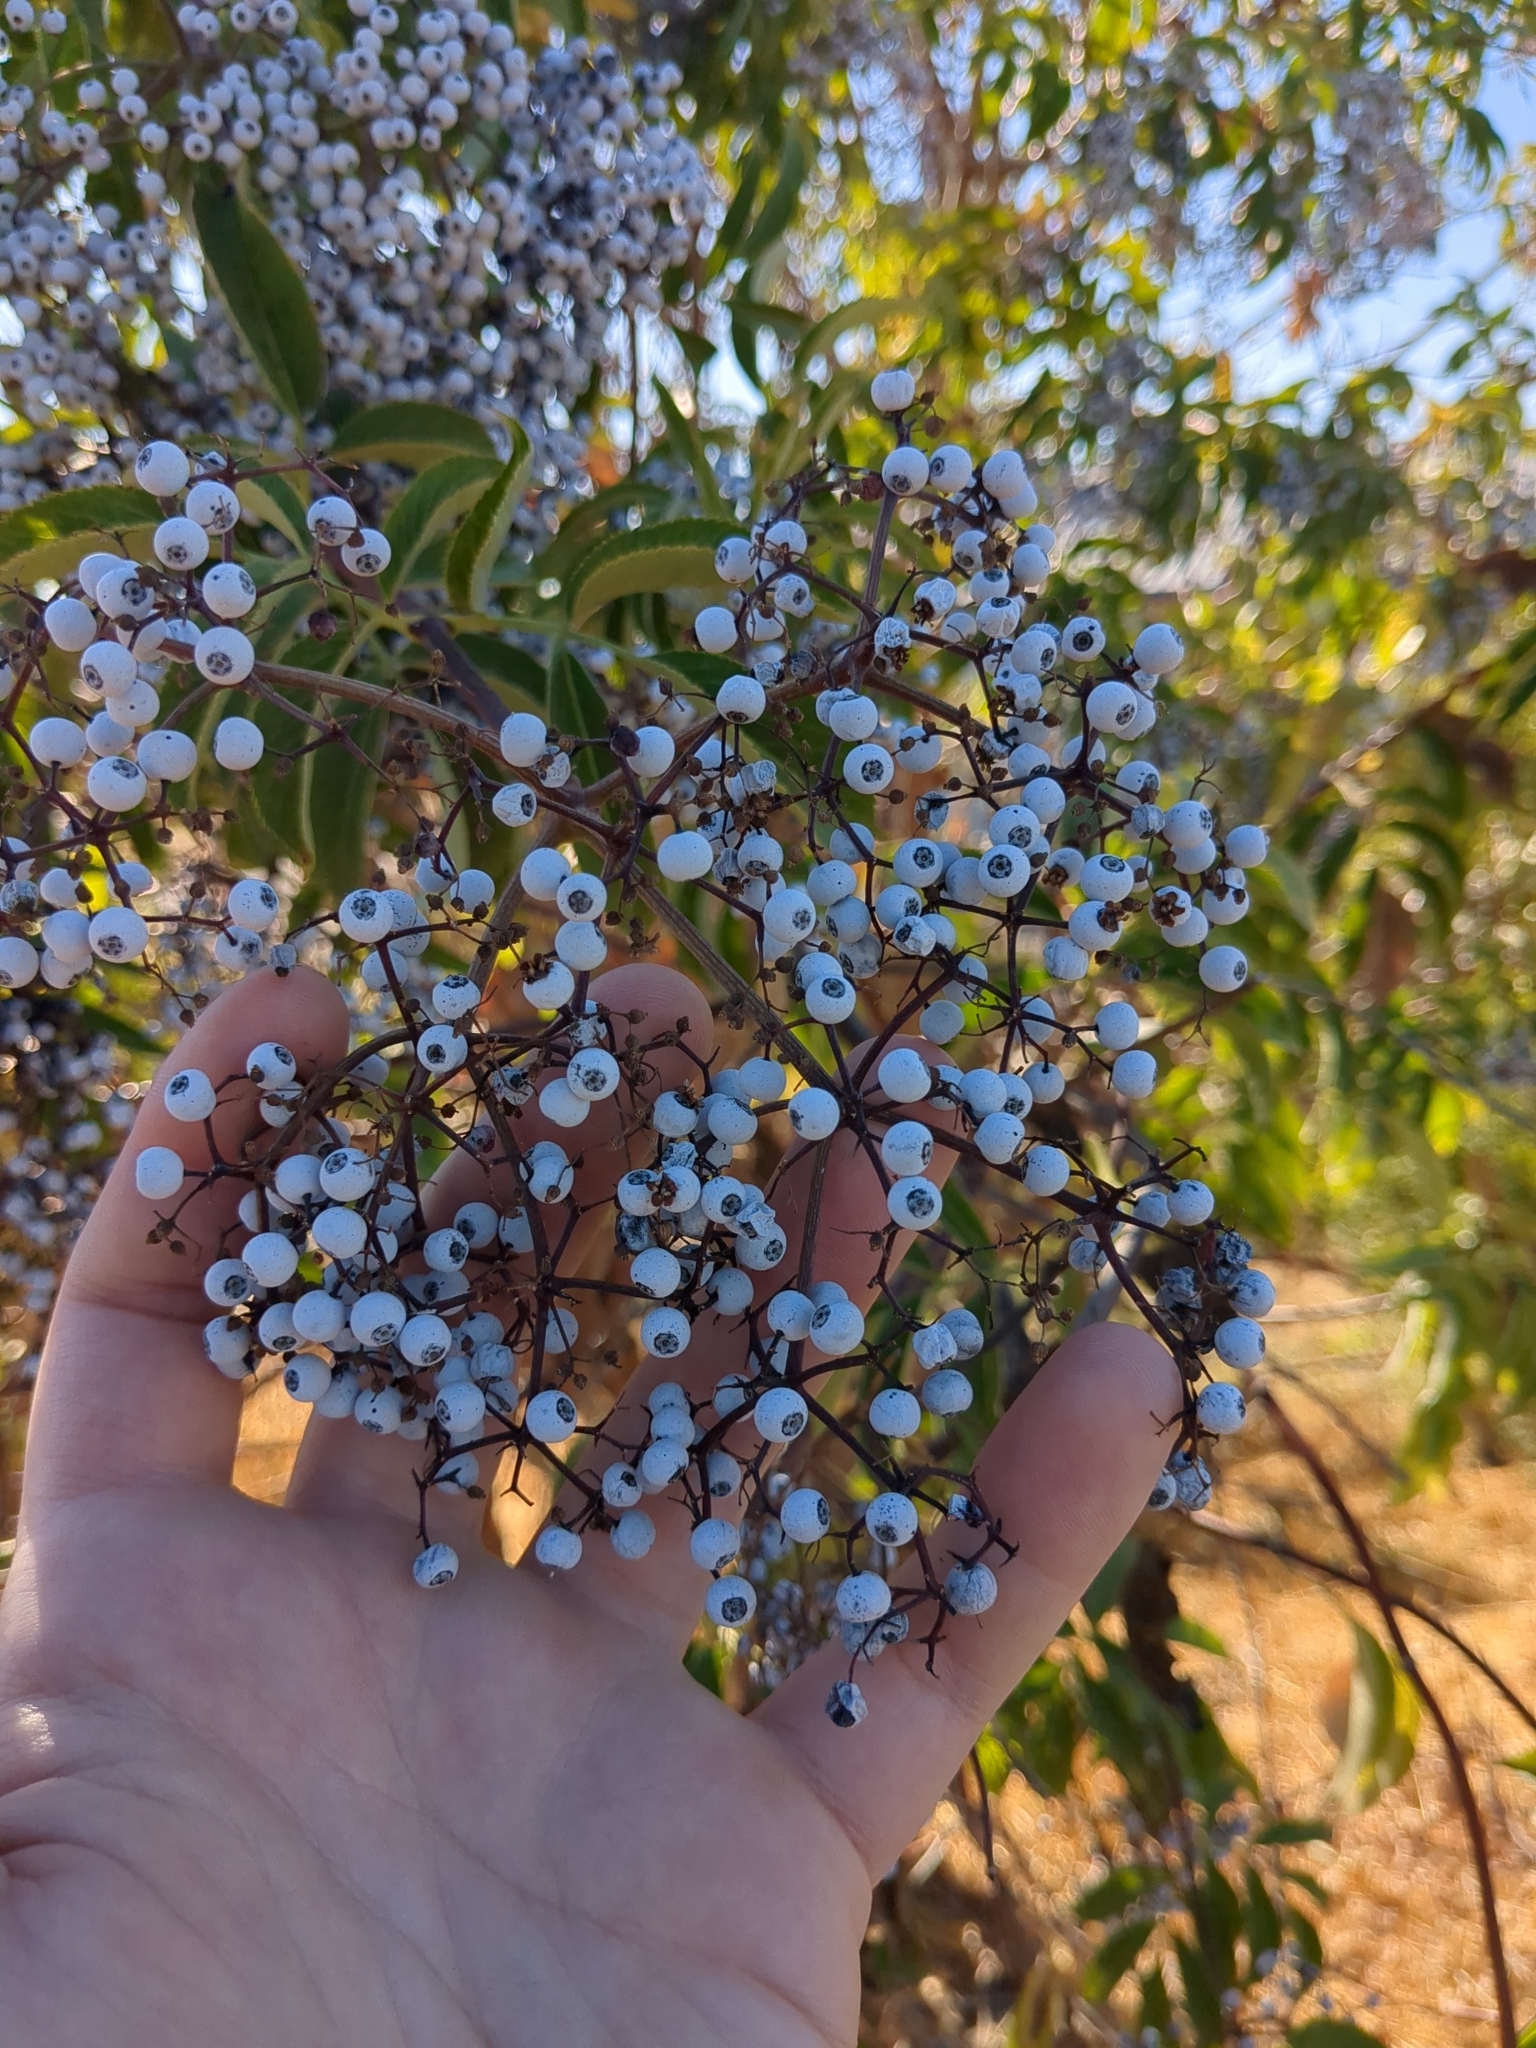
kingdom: Plantae
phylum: Tracheophyta
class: Magnoliopsida
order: Dipsacales
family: Viburnaceae
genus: Sambucus
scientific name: Sambucus cerulea
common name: Blue elder
